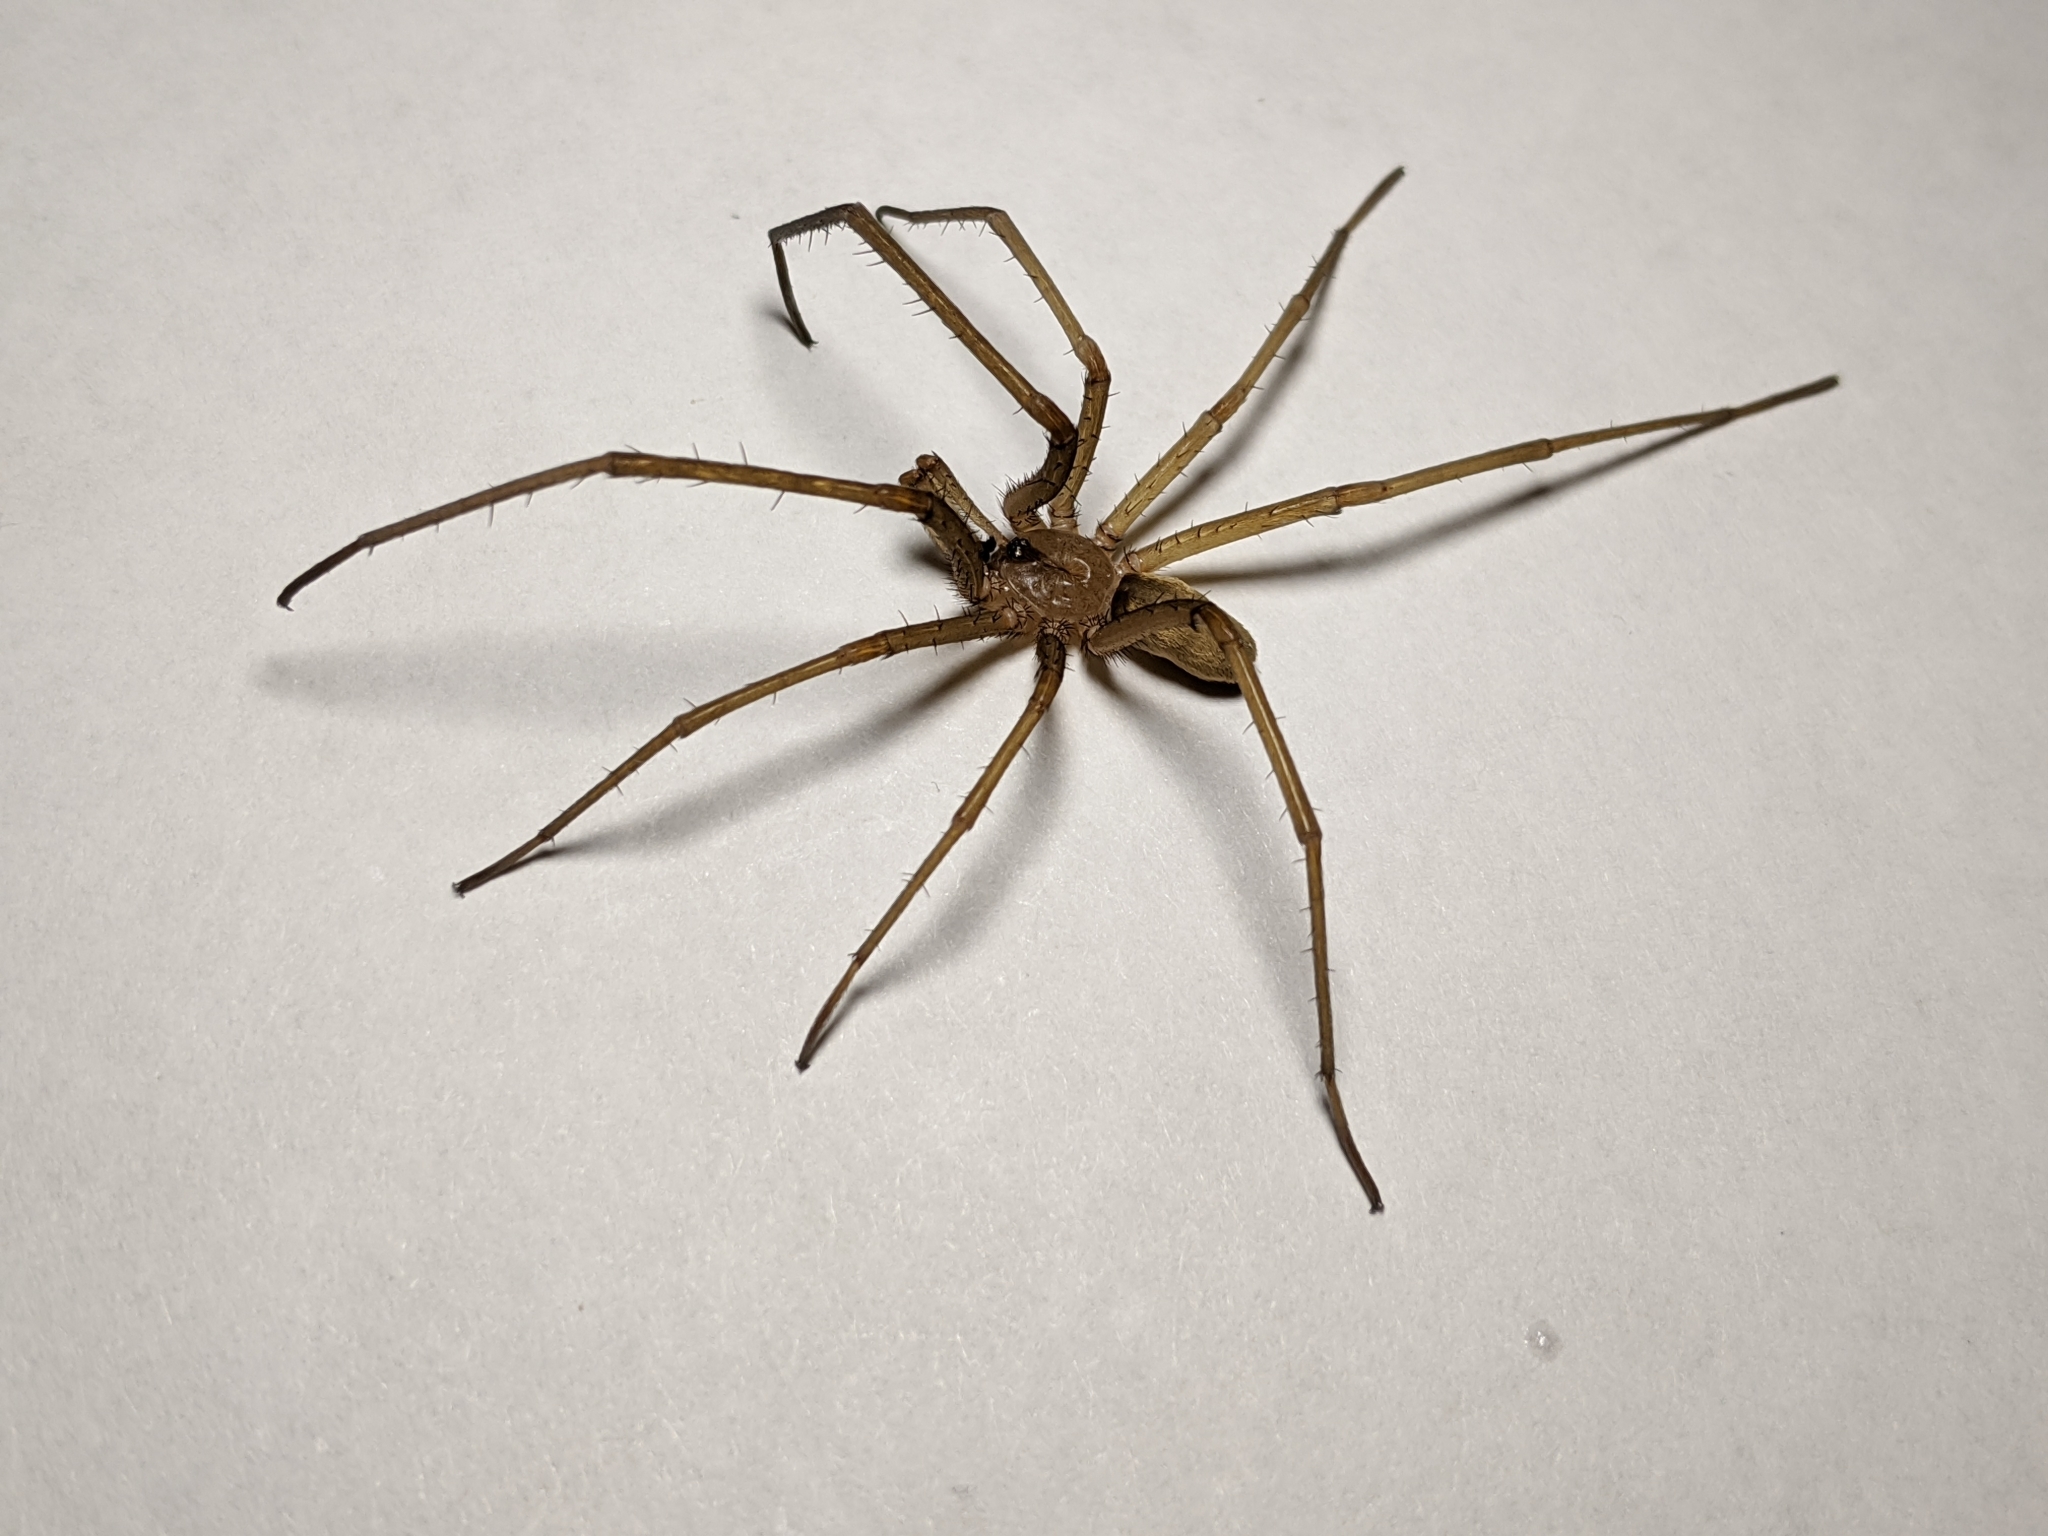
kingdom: Animalia
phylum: Arthropoda
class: Arachnida
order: Araneae
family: Filistatidae
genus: Kukulcania
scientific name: Kukulcania hibernalis
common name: Crevice weaver
